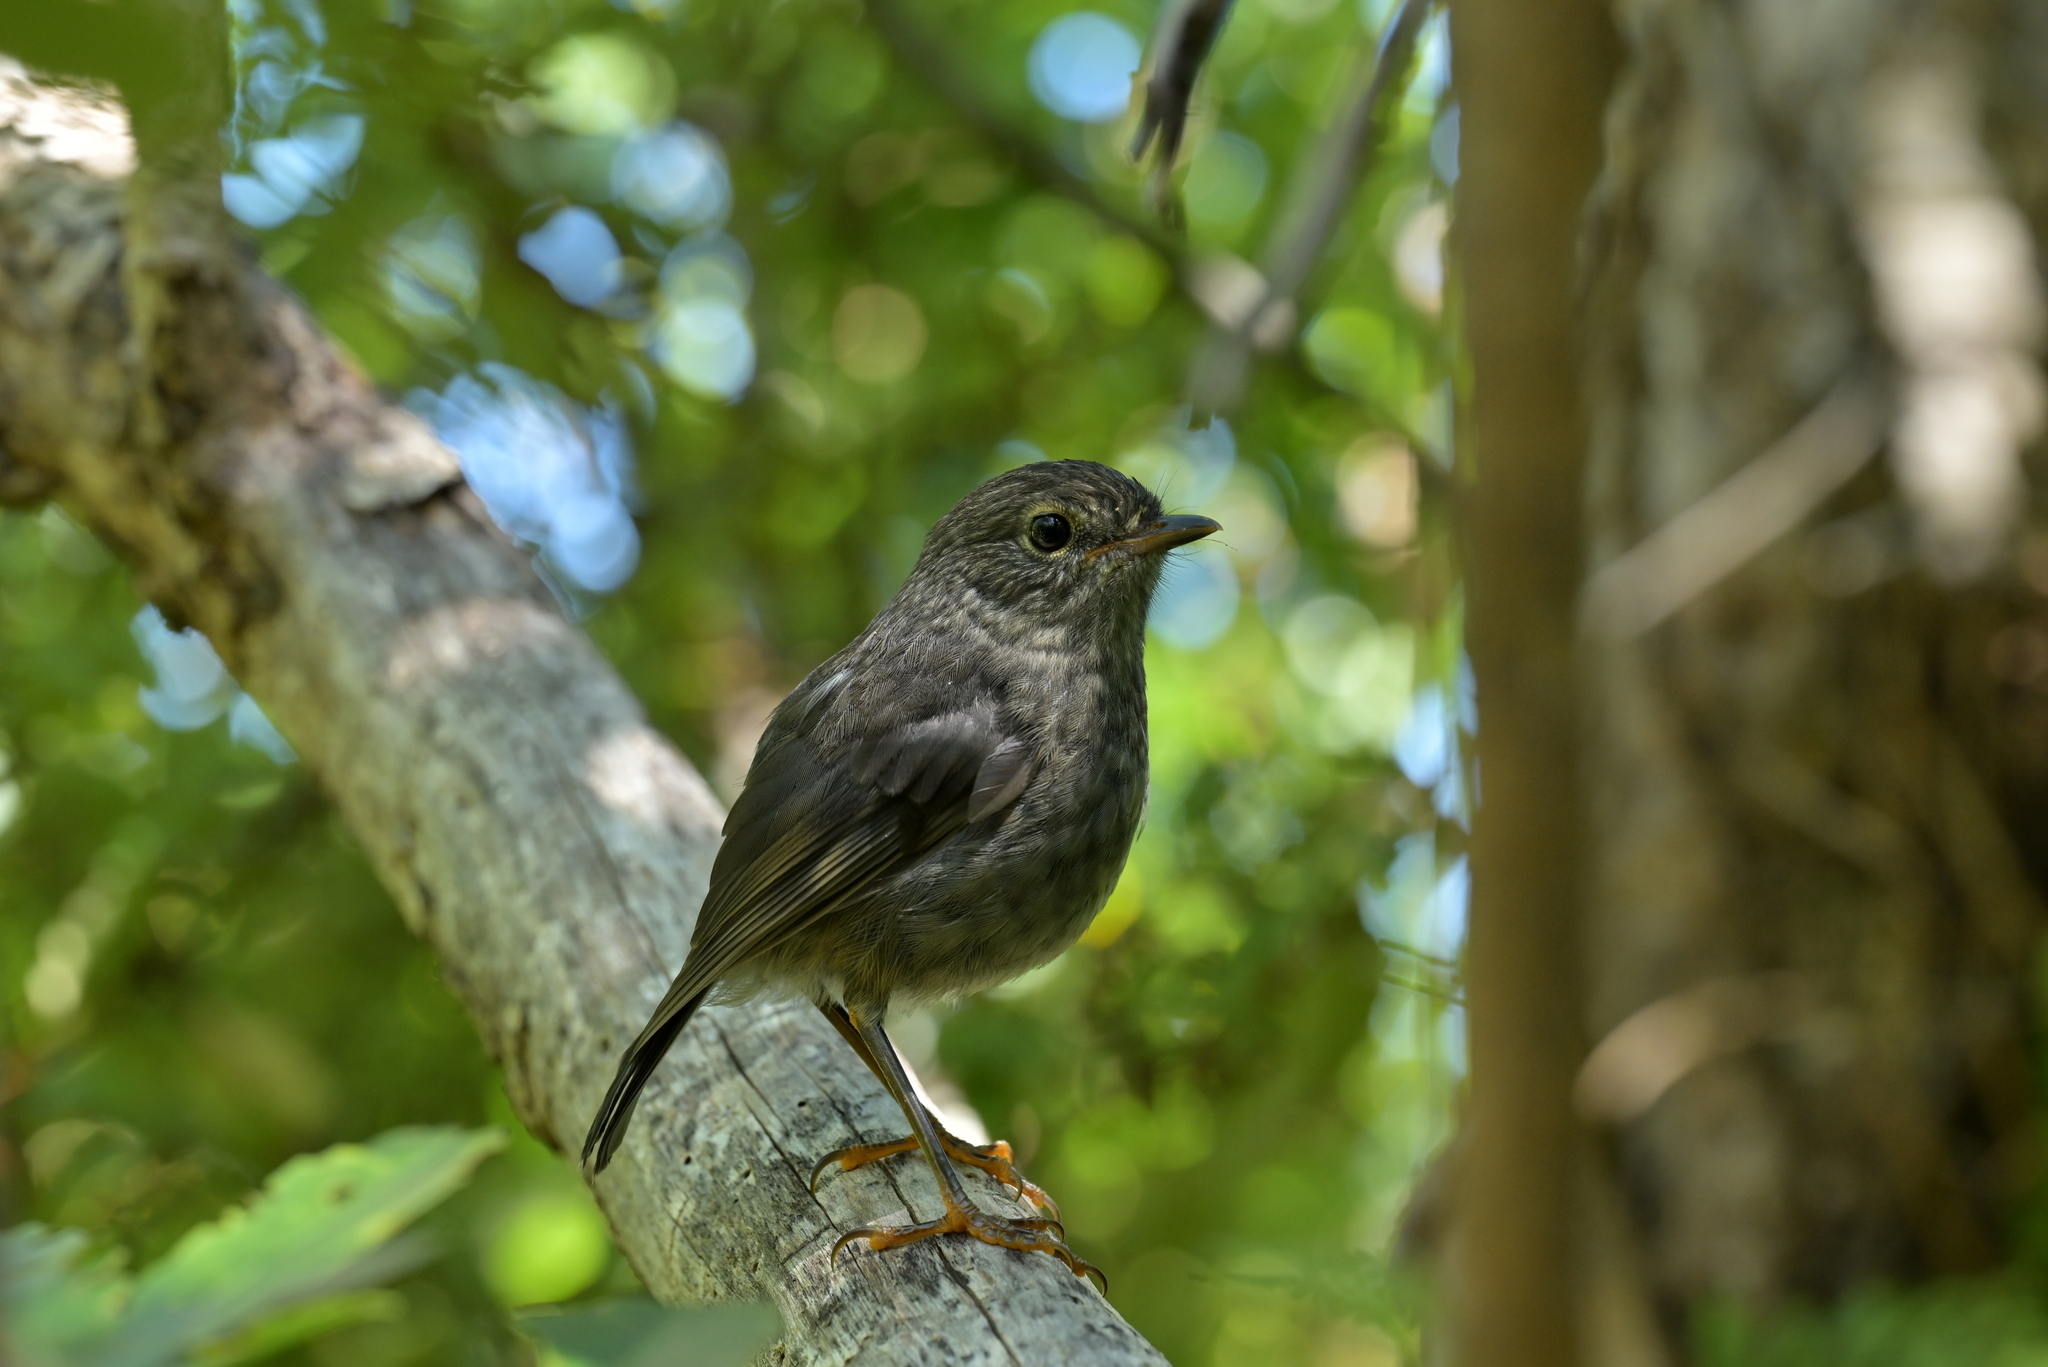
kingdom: Animalia
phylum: Chordata
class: Aves
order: Passeriformes
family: Petroicidae
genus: Petroica
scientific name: Petroica australis
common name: New zealand robin
